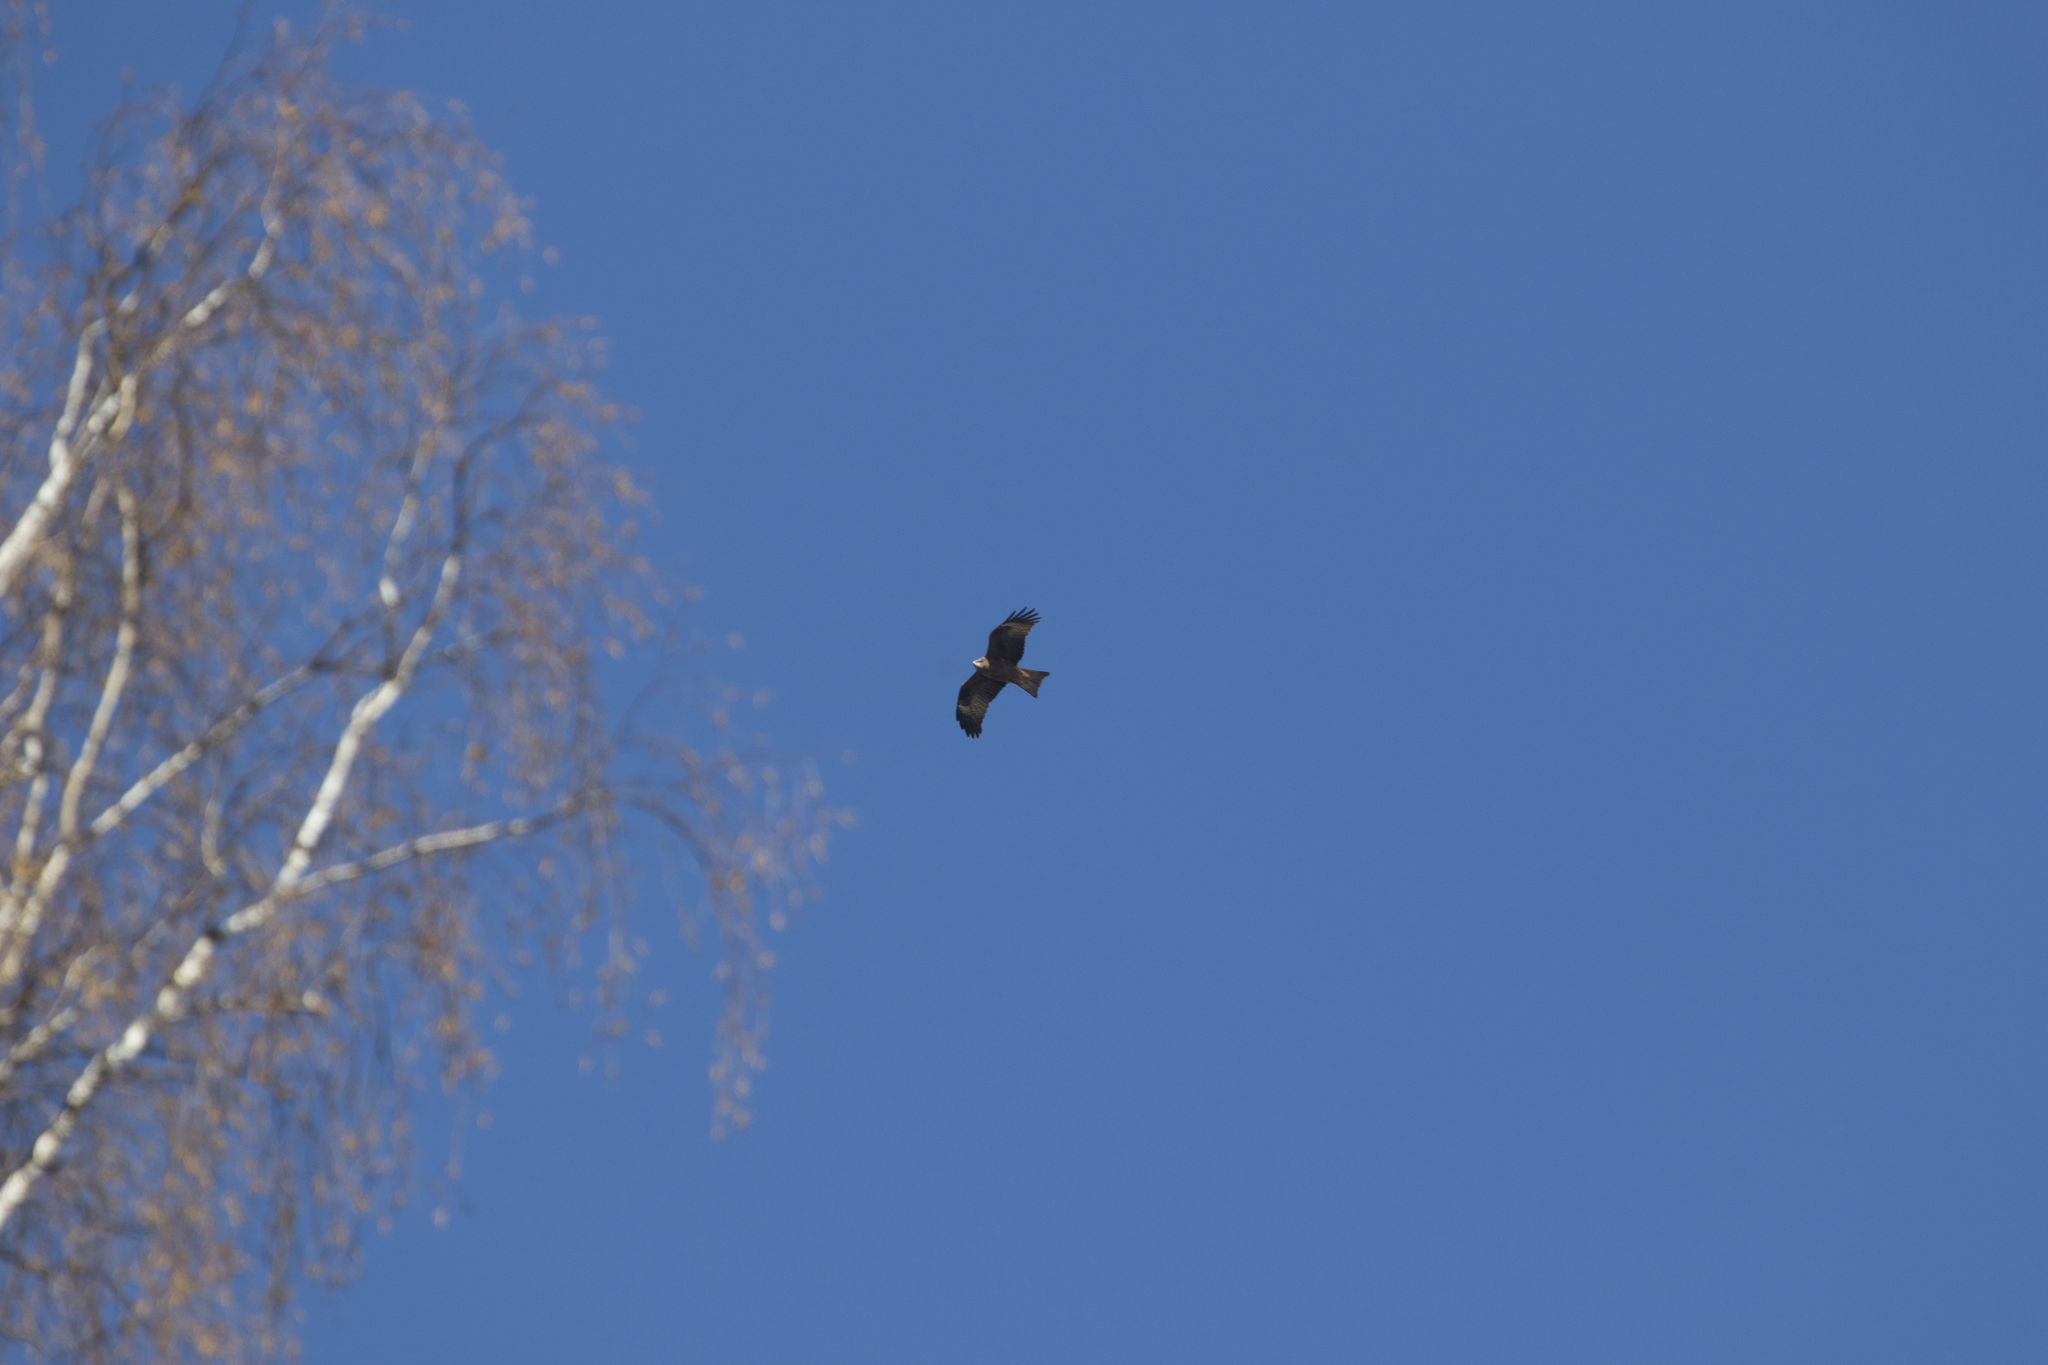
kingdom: Animalia
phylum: Chordata
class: Aves
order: Accipitriformes
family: Accipitridae
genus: Milvus
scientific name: Milvus migrans
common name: Black kite
